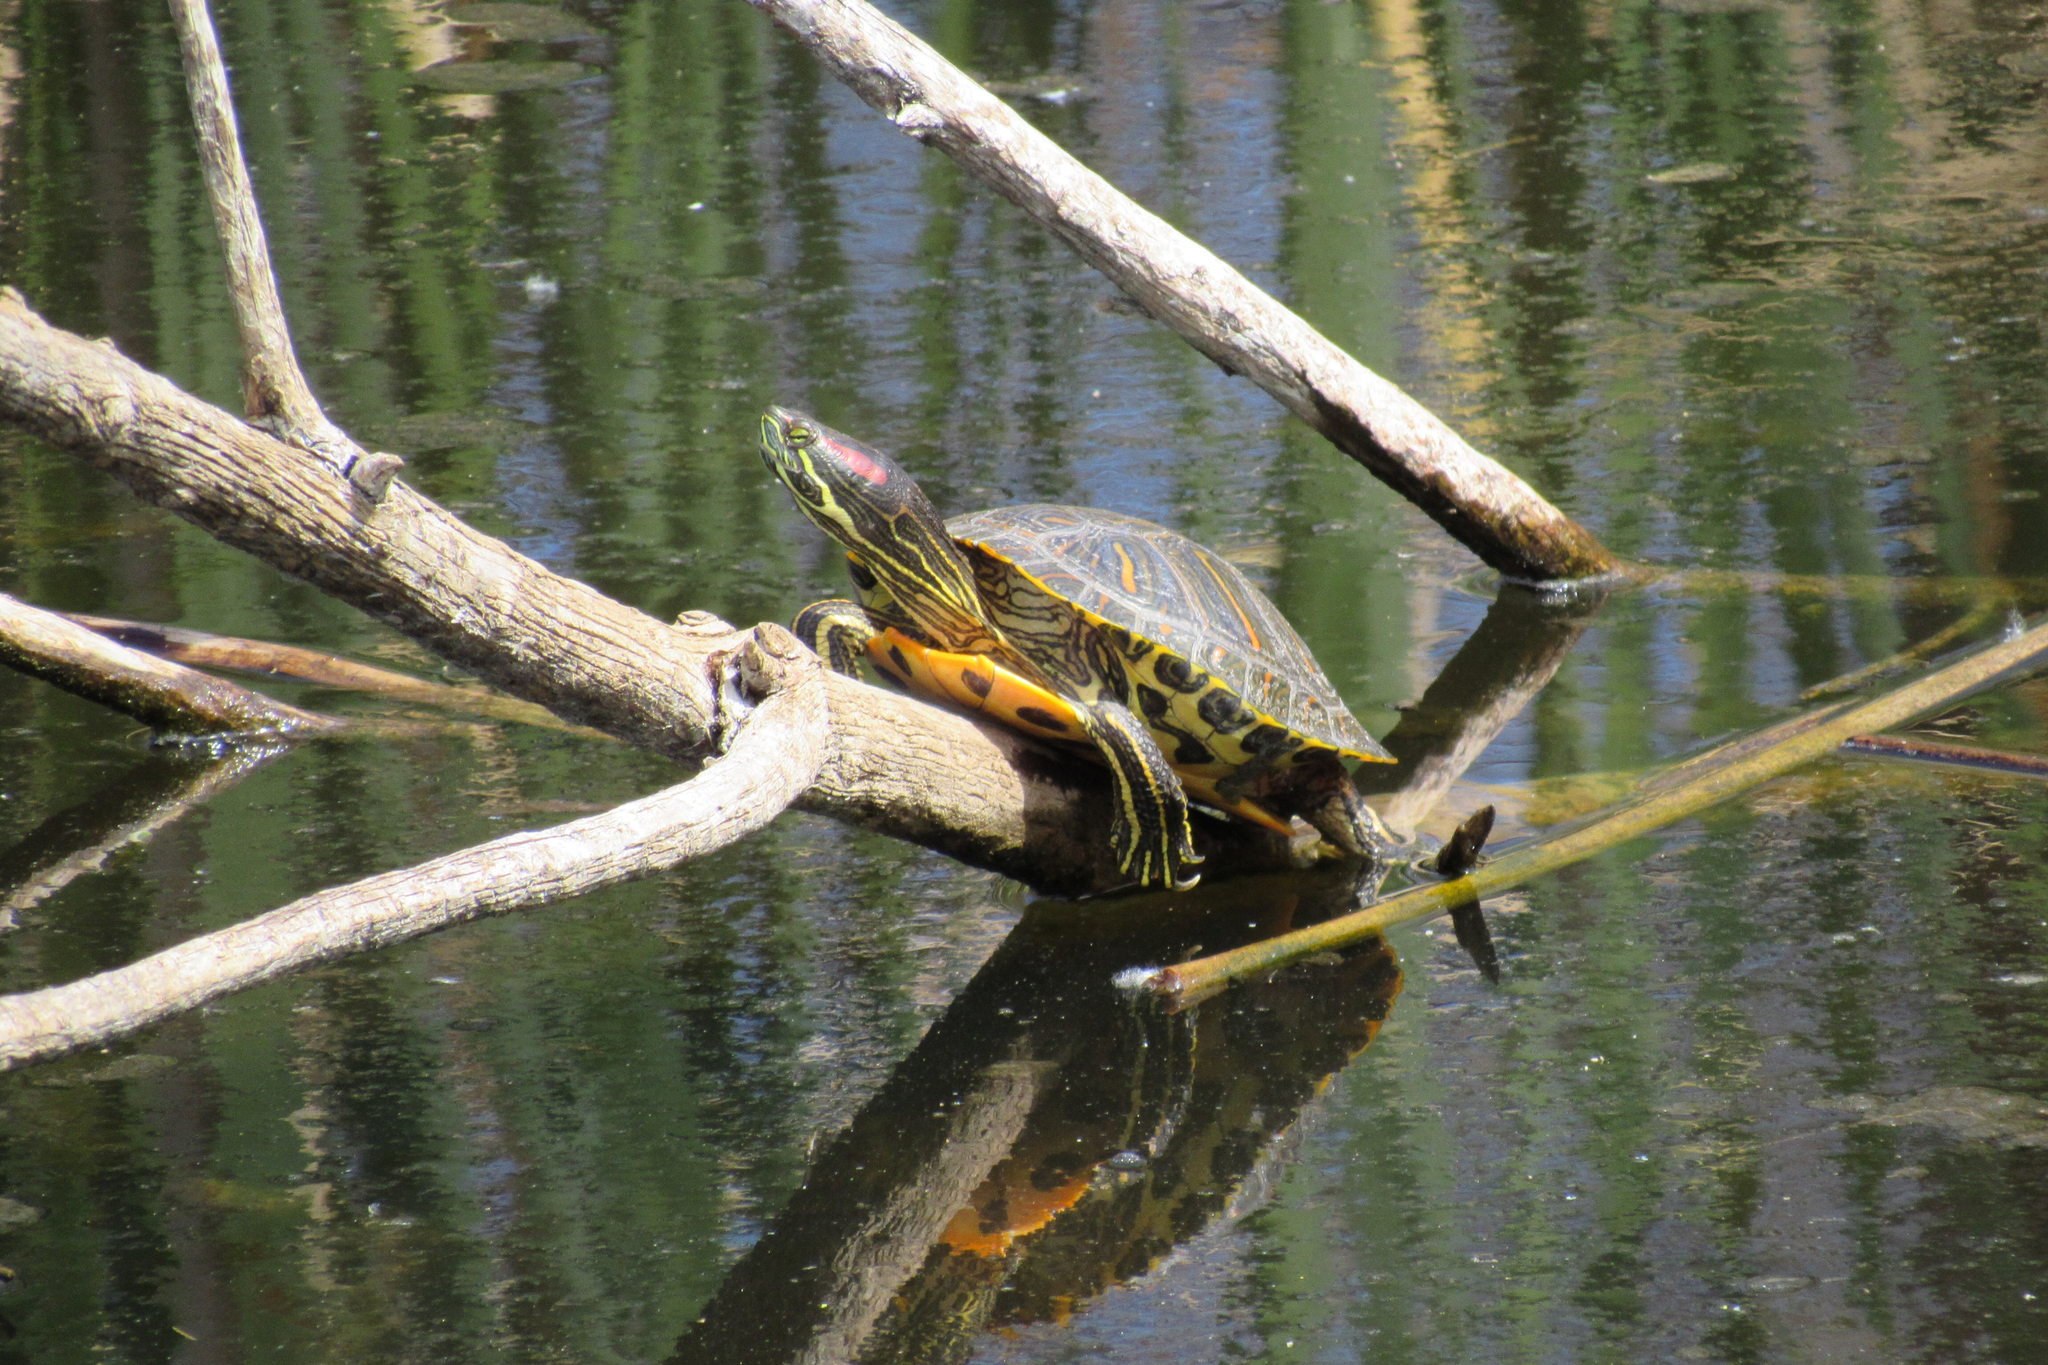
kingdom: Animalia
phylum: Chordata
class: Testudines
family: Emydidae
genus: Trachemys
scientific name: Trachemys scripta
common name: Slider
